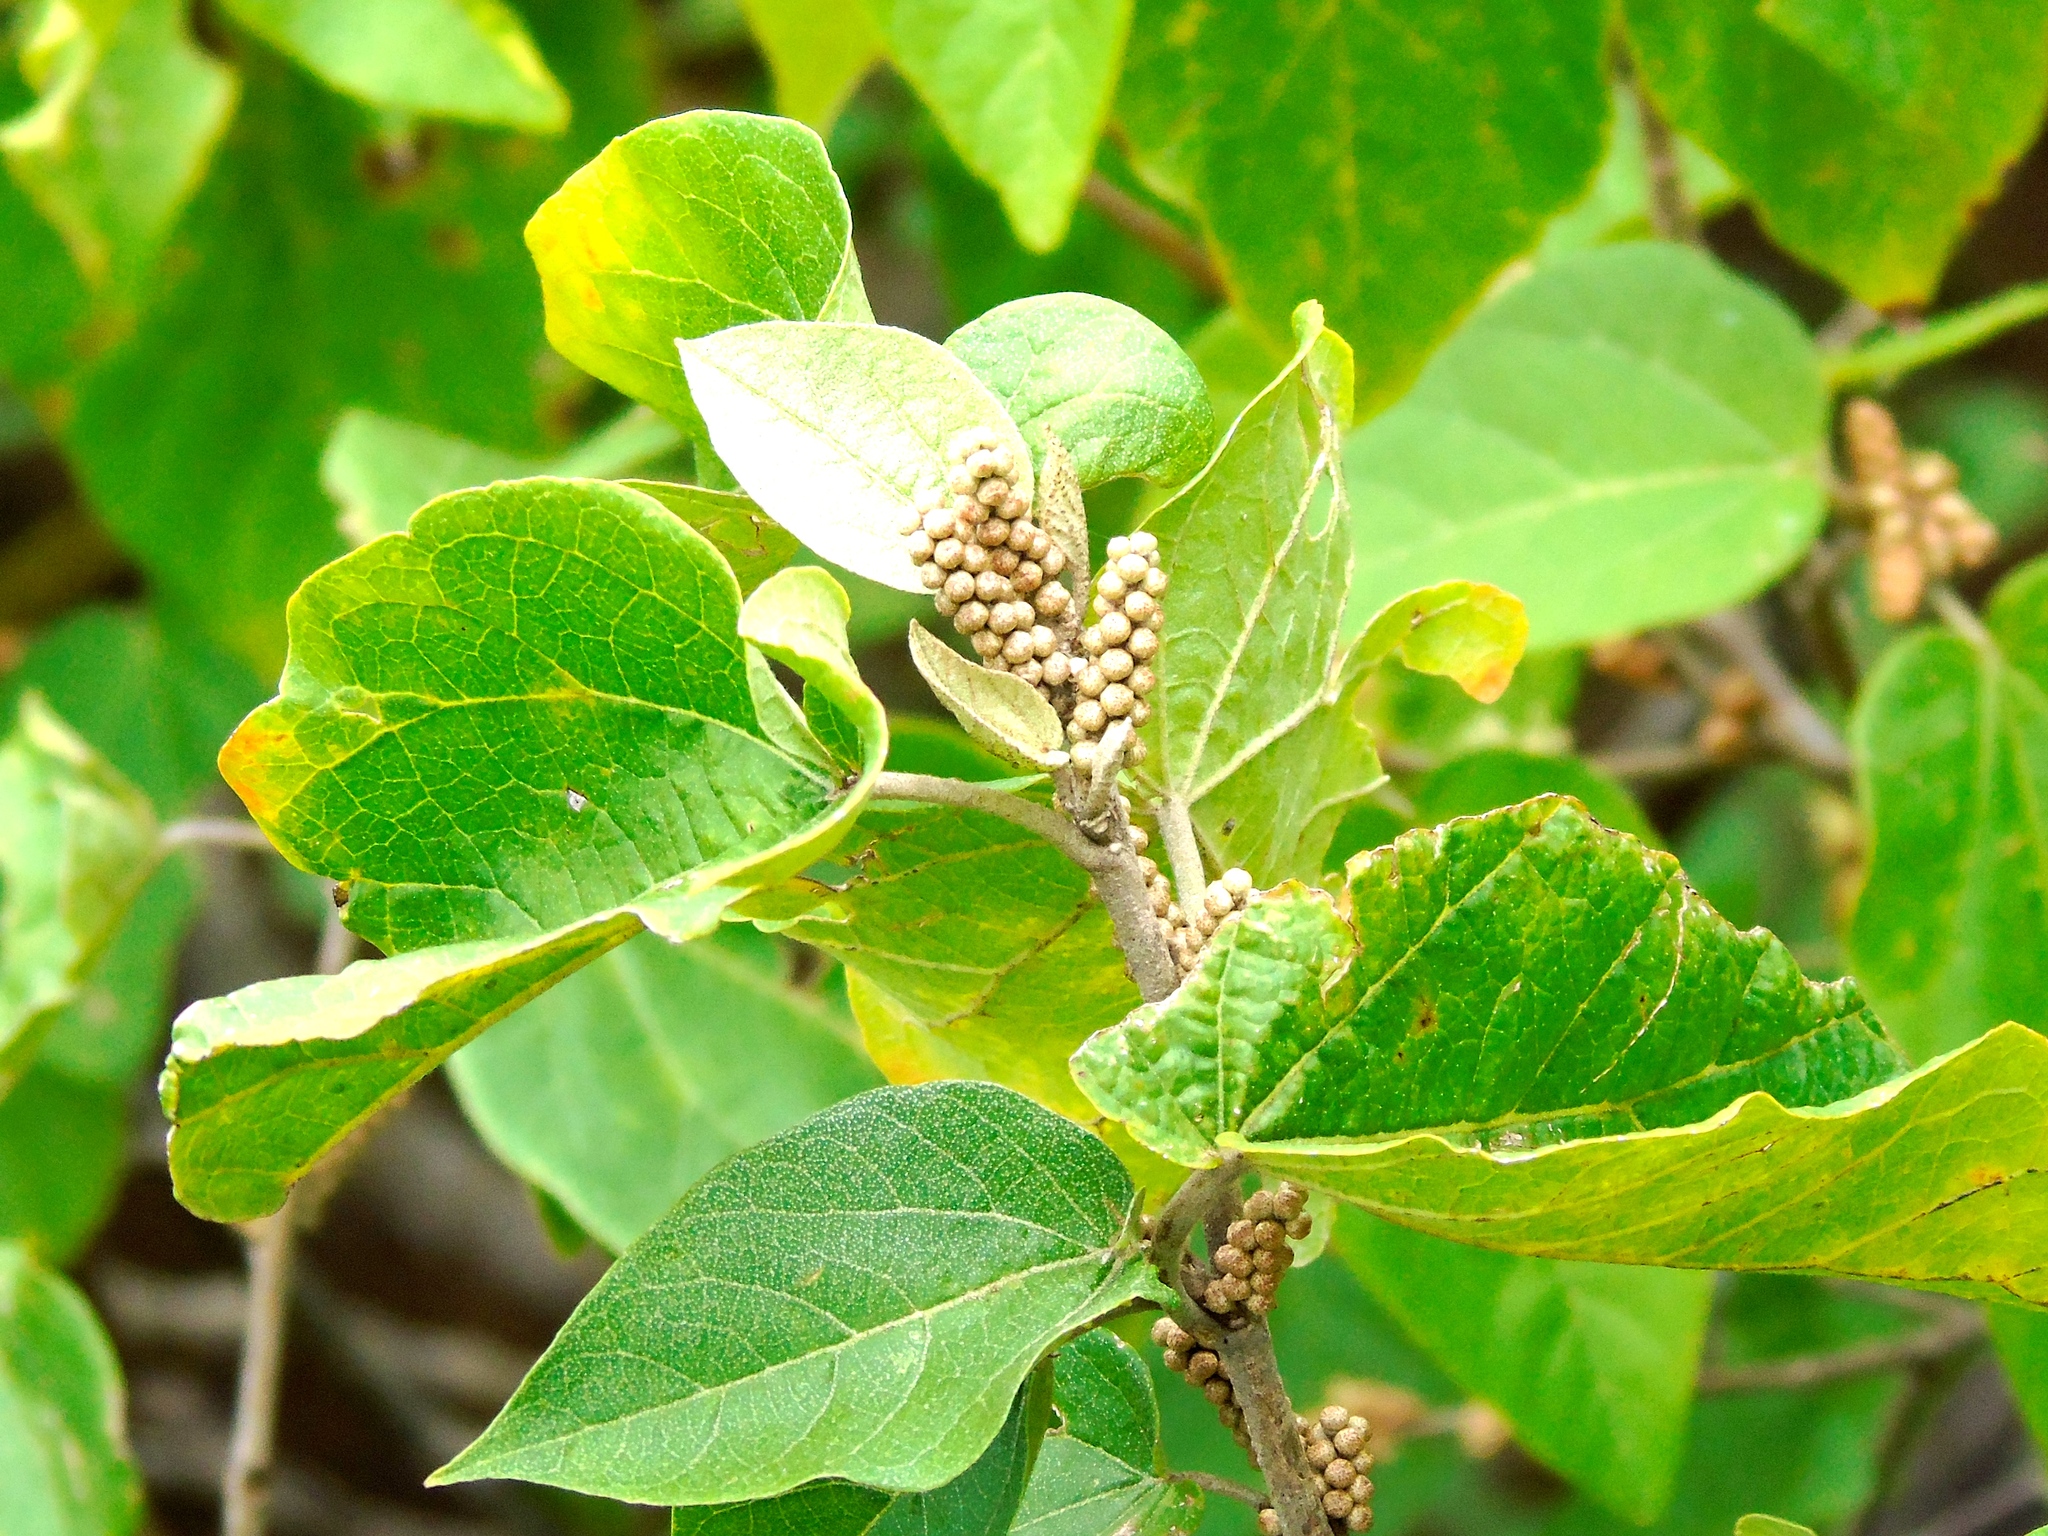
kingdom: Plantae
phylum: Tracheophyta
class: Magnoliopsida
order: Malpighiales
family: Euphorbiaceae
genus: Croton
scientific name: Croton lindquistii
